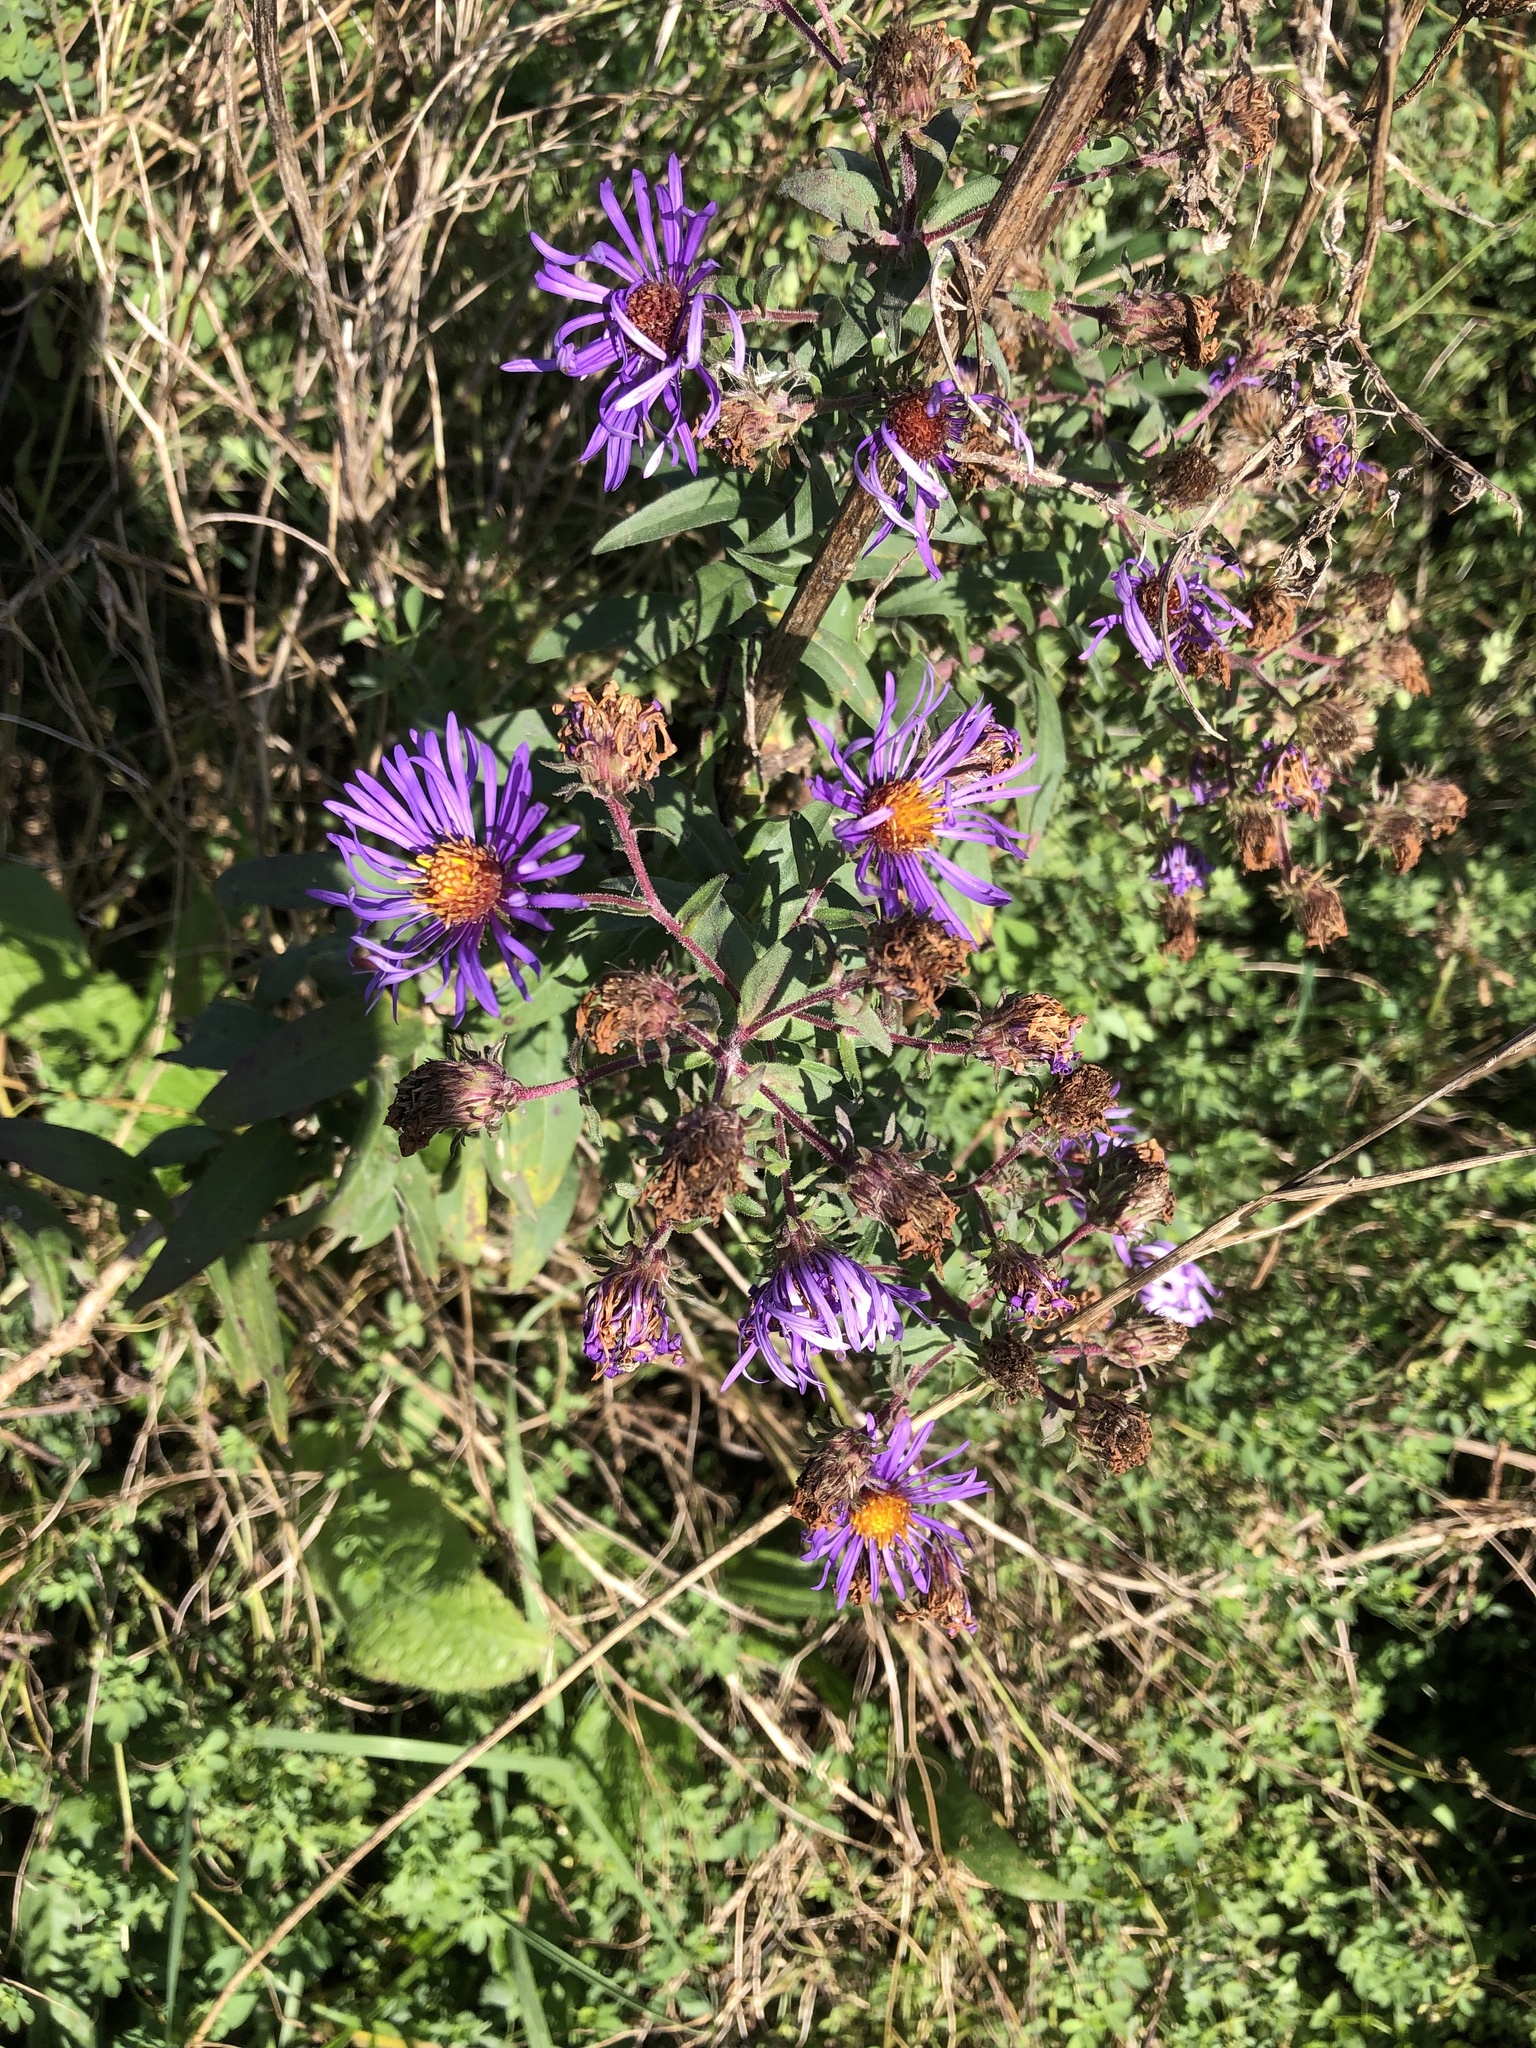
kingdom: Plantae
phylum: Tracheophyta
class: Magnoliopsida
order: Asterales
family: Asteraceae
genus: Symphyotrichum
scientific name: Symphyotrichum novae-angliae
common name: Michaelmas daisy
